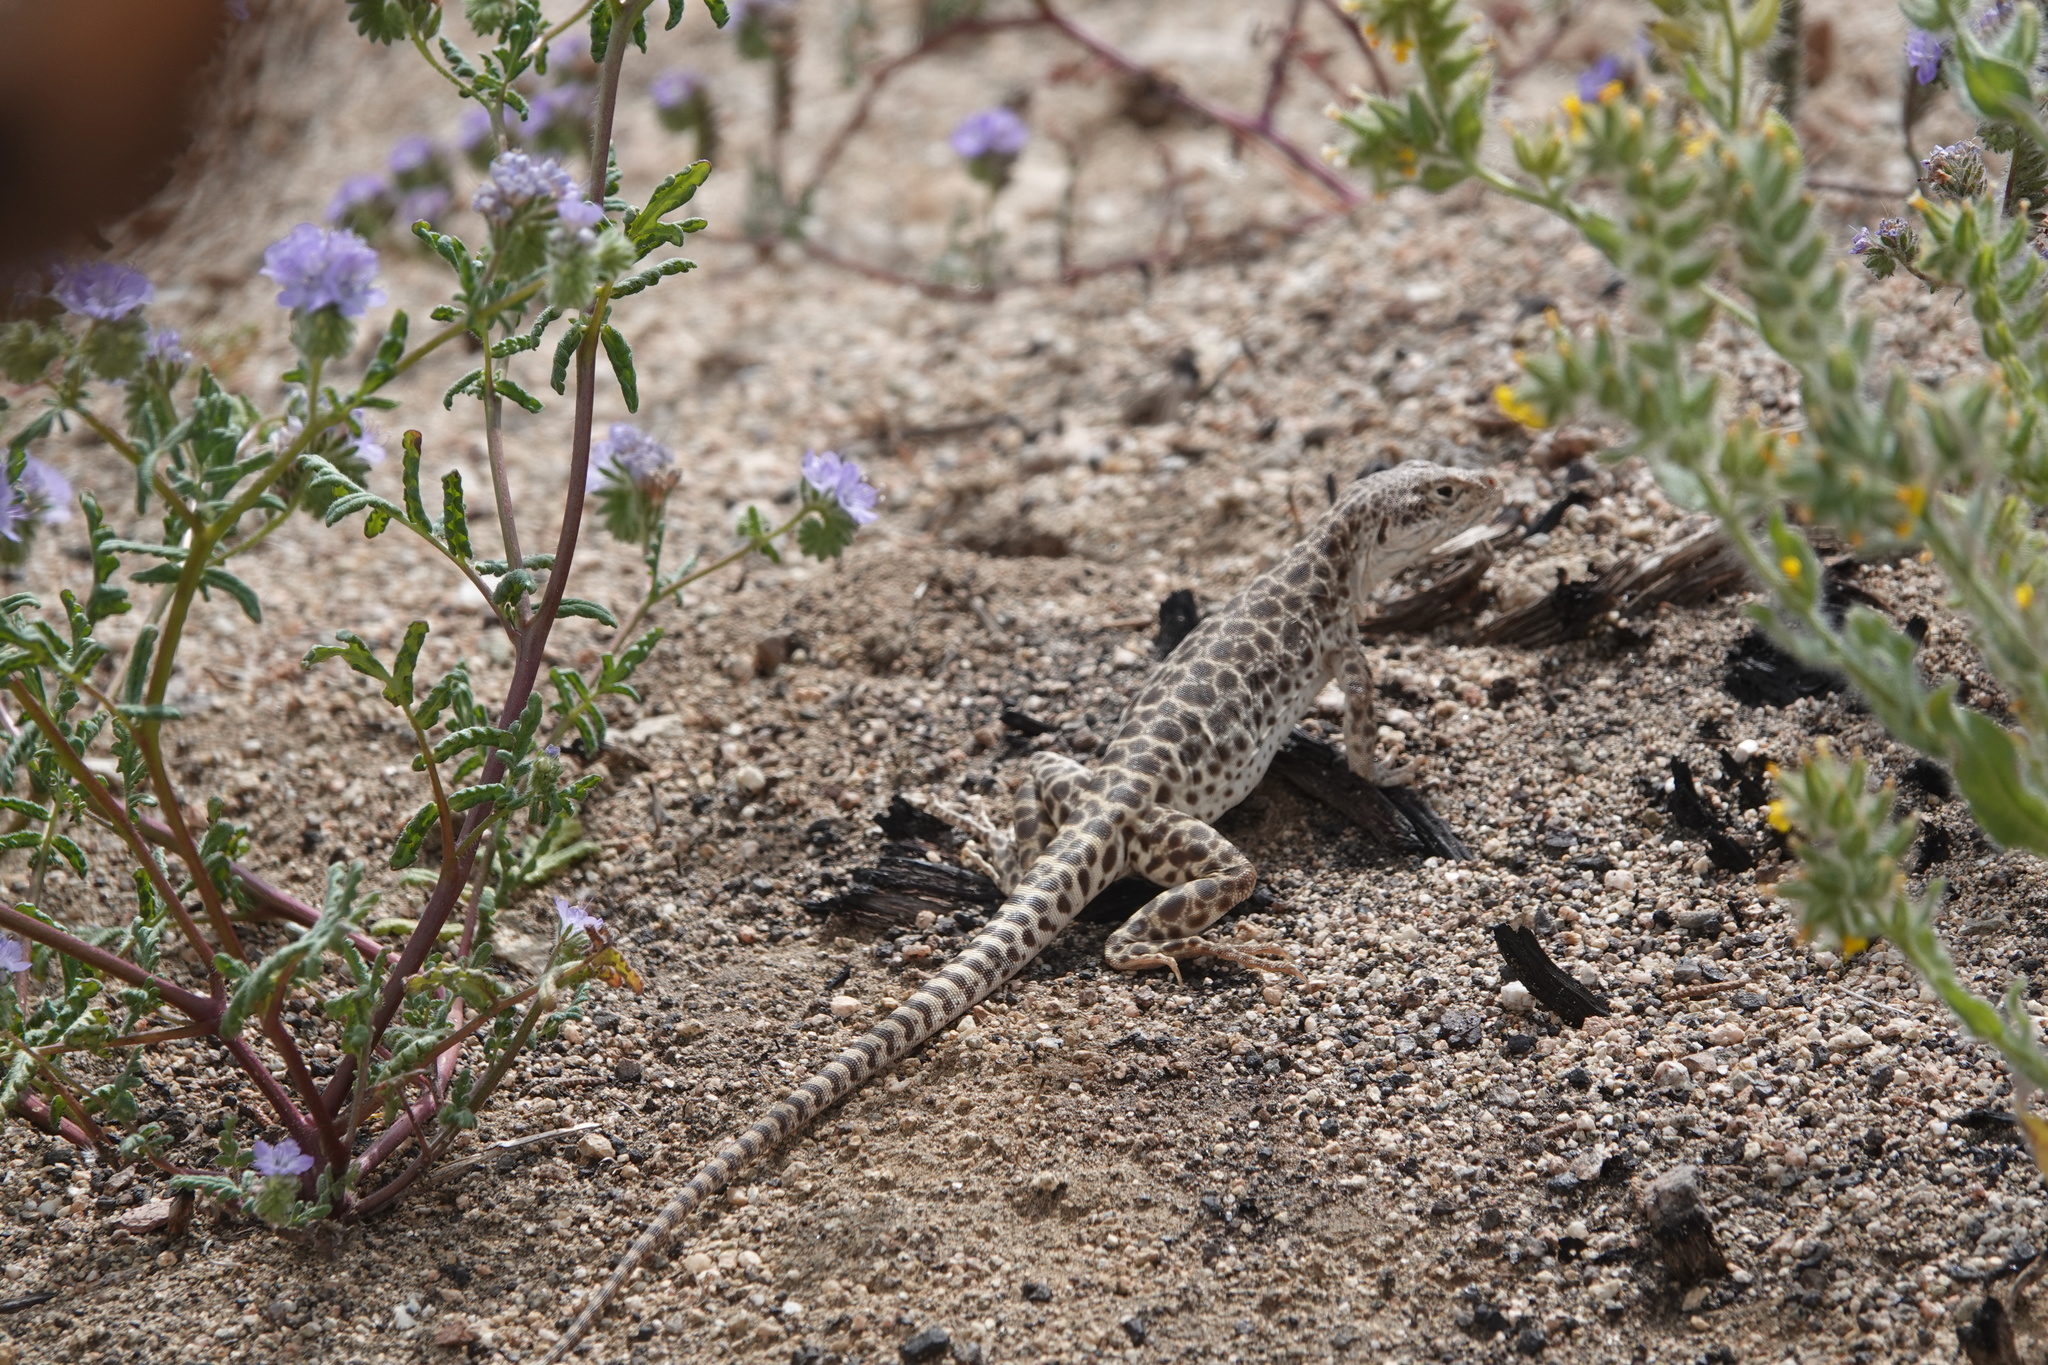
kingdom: Animalia
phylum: Chordata
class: Squamata
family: Crotaphytidae
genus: Gambelia
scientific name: Gambelia wislizenii
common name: Longnose leopard lizard
